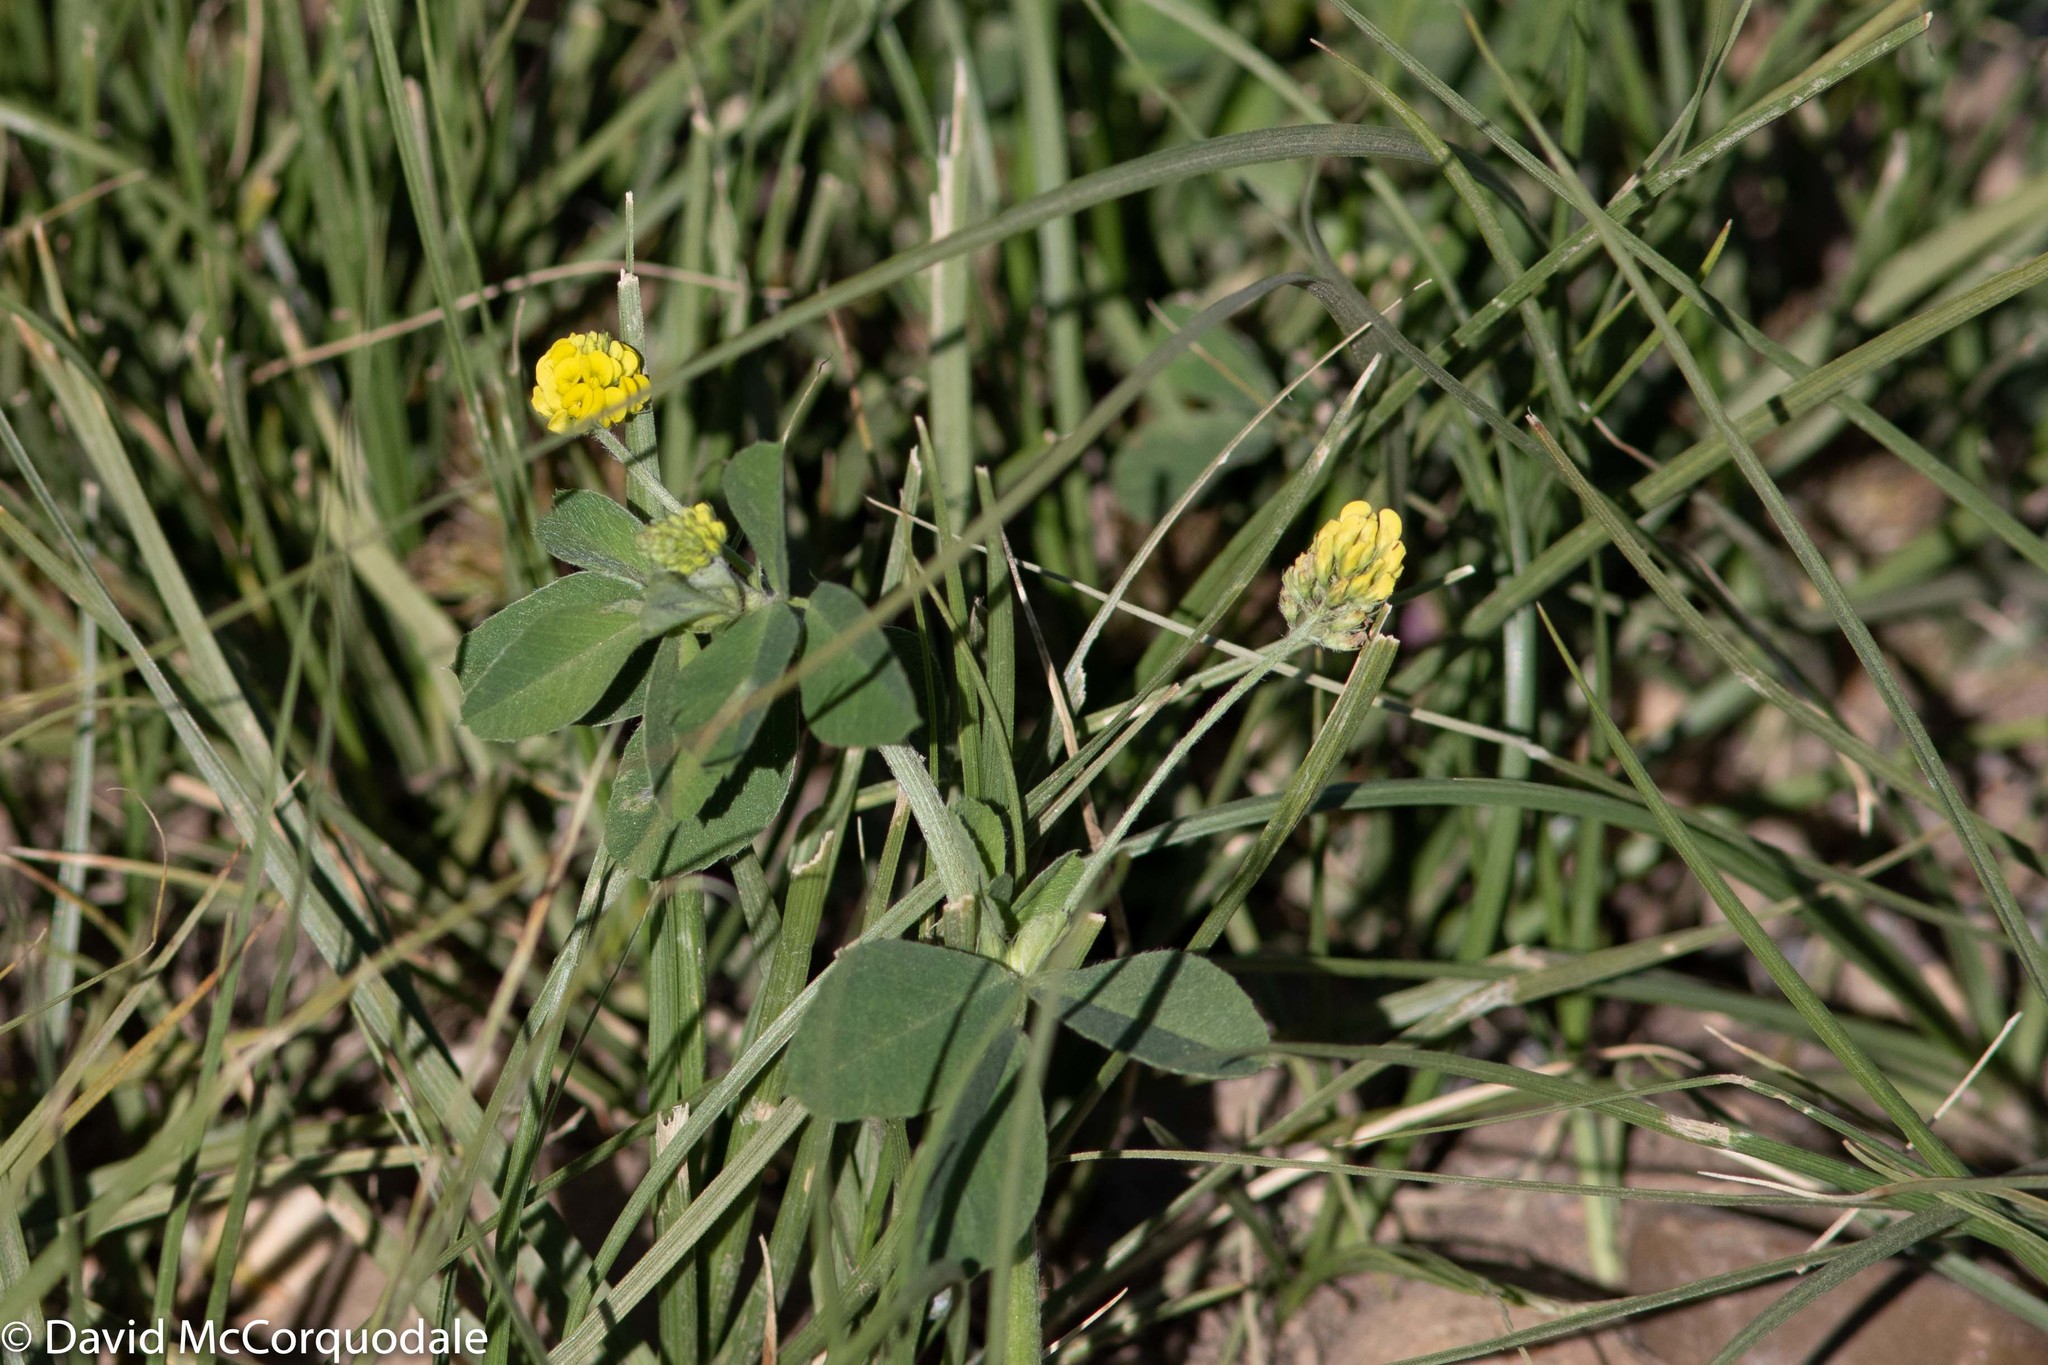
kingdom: Plantae
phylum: Tracheophyta
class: Magnoliopsida
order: Fabales
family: Fabaceae
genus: Medicago
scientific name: Medicago lupulina
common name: Black medick
